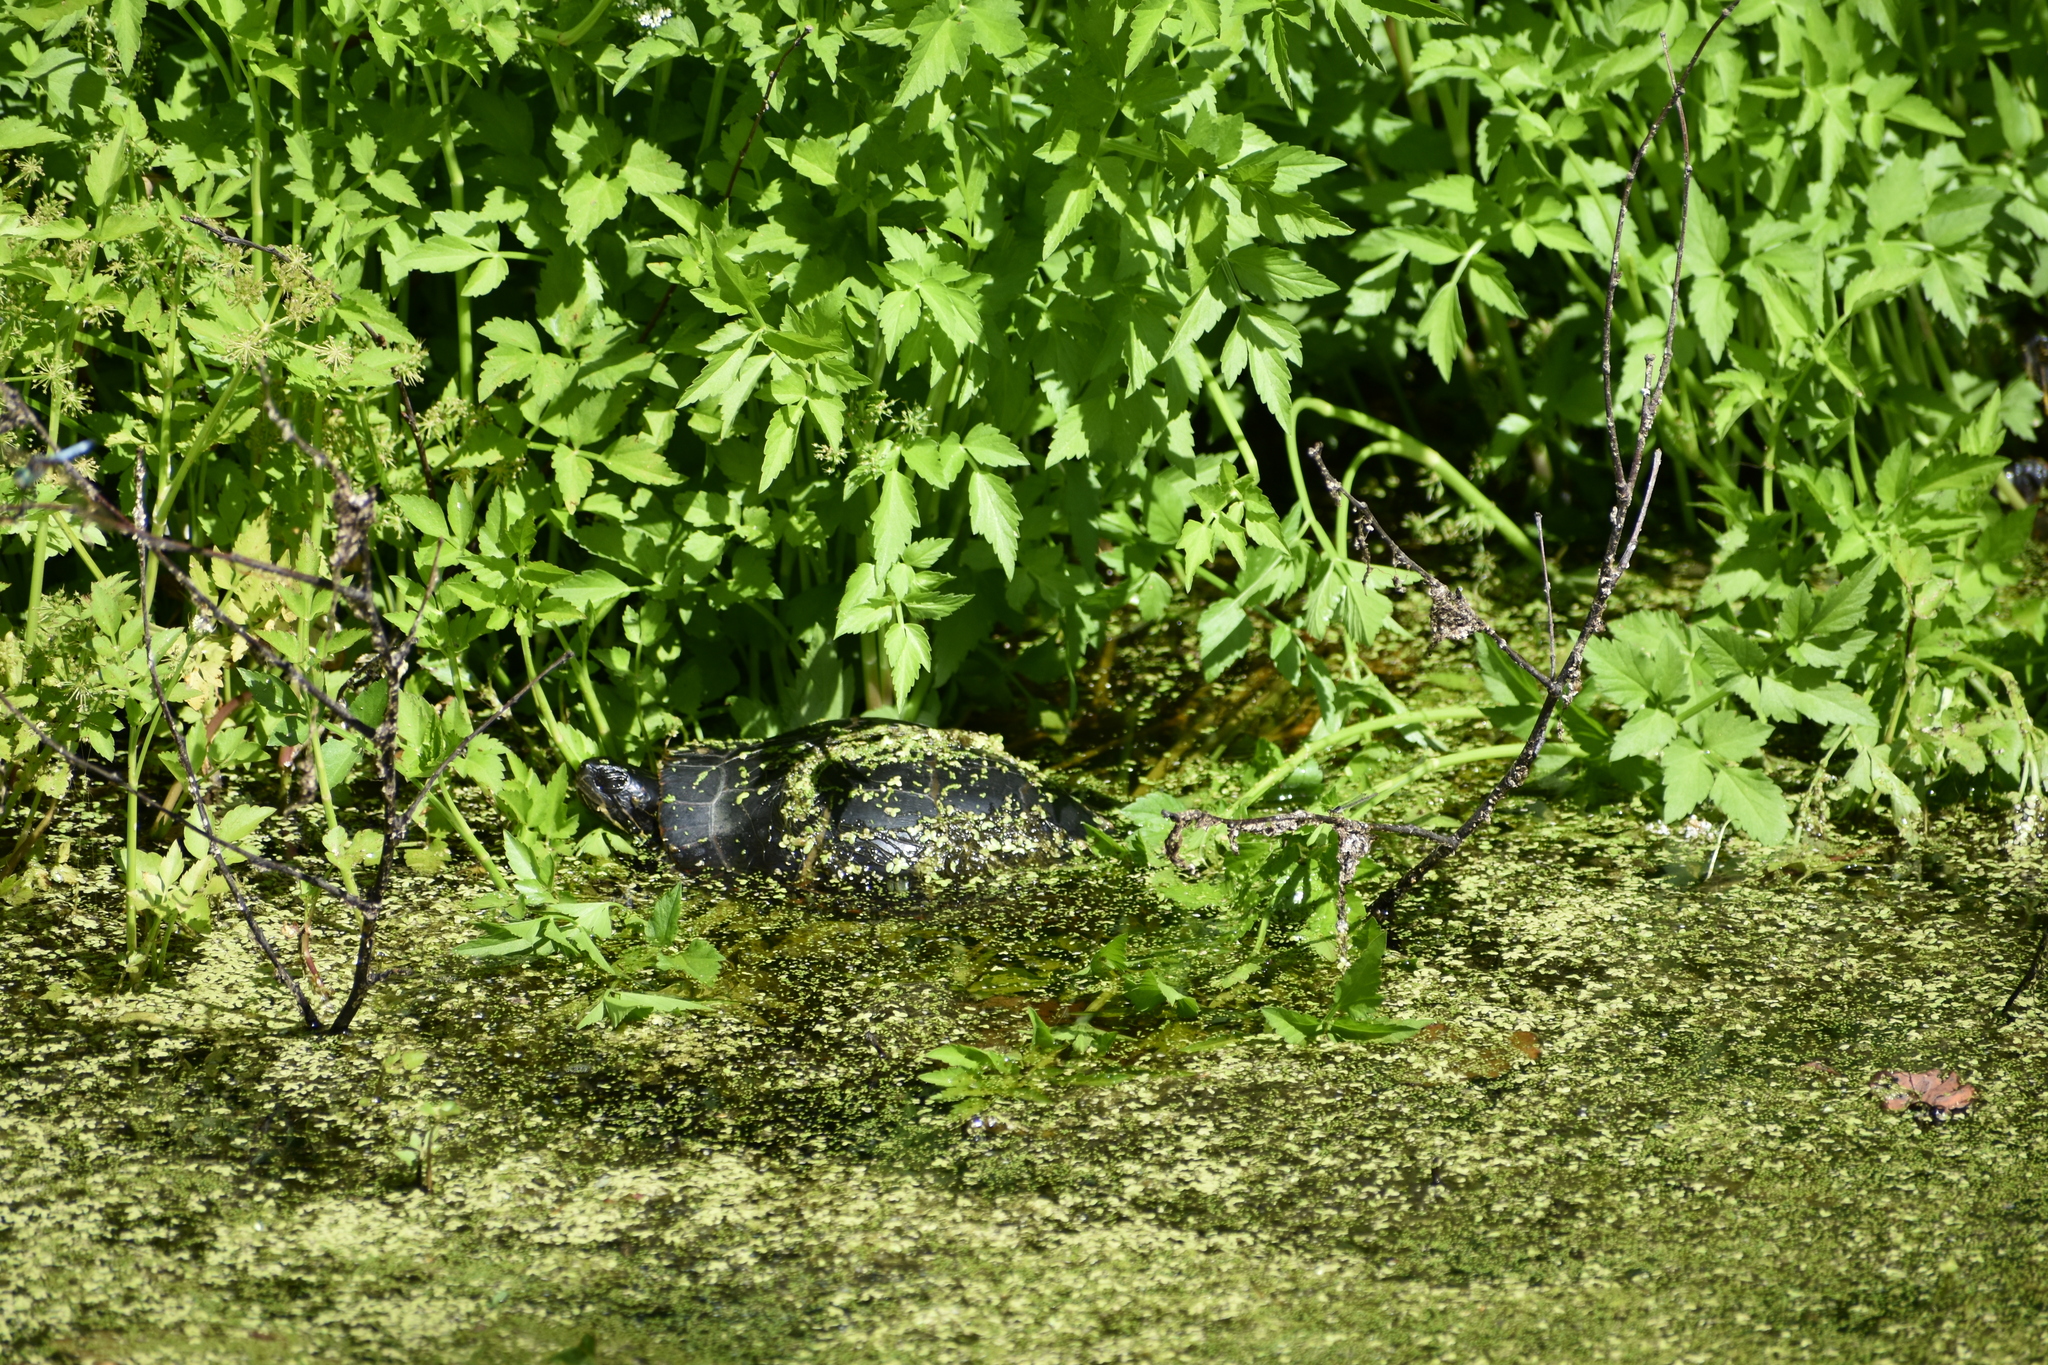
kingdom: Animalia
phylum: Chordata
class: Testudines
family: Emydidae
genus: Chrysemys
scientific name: Chrysemys picta
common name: Painted turtle
